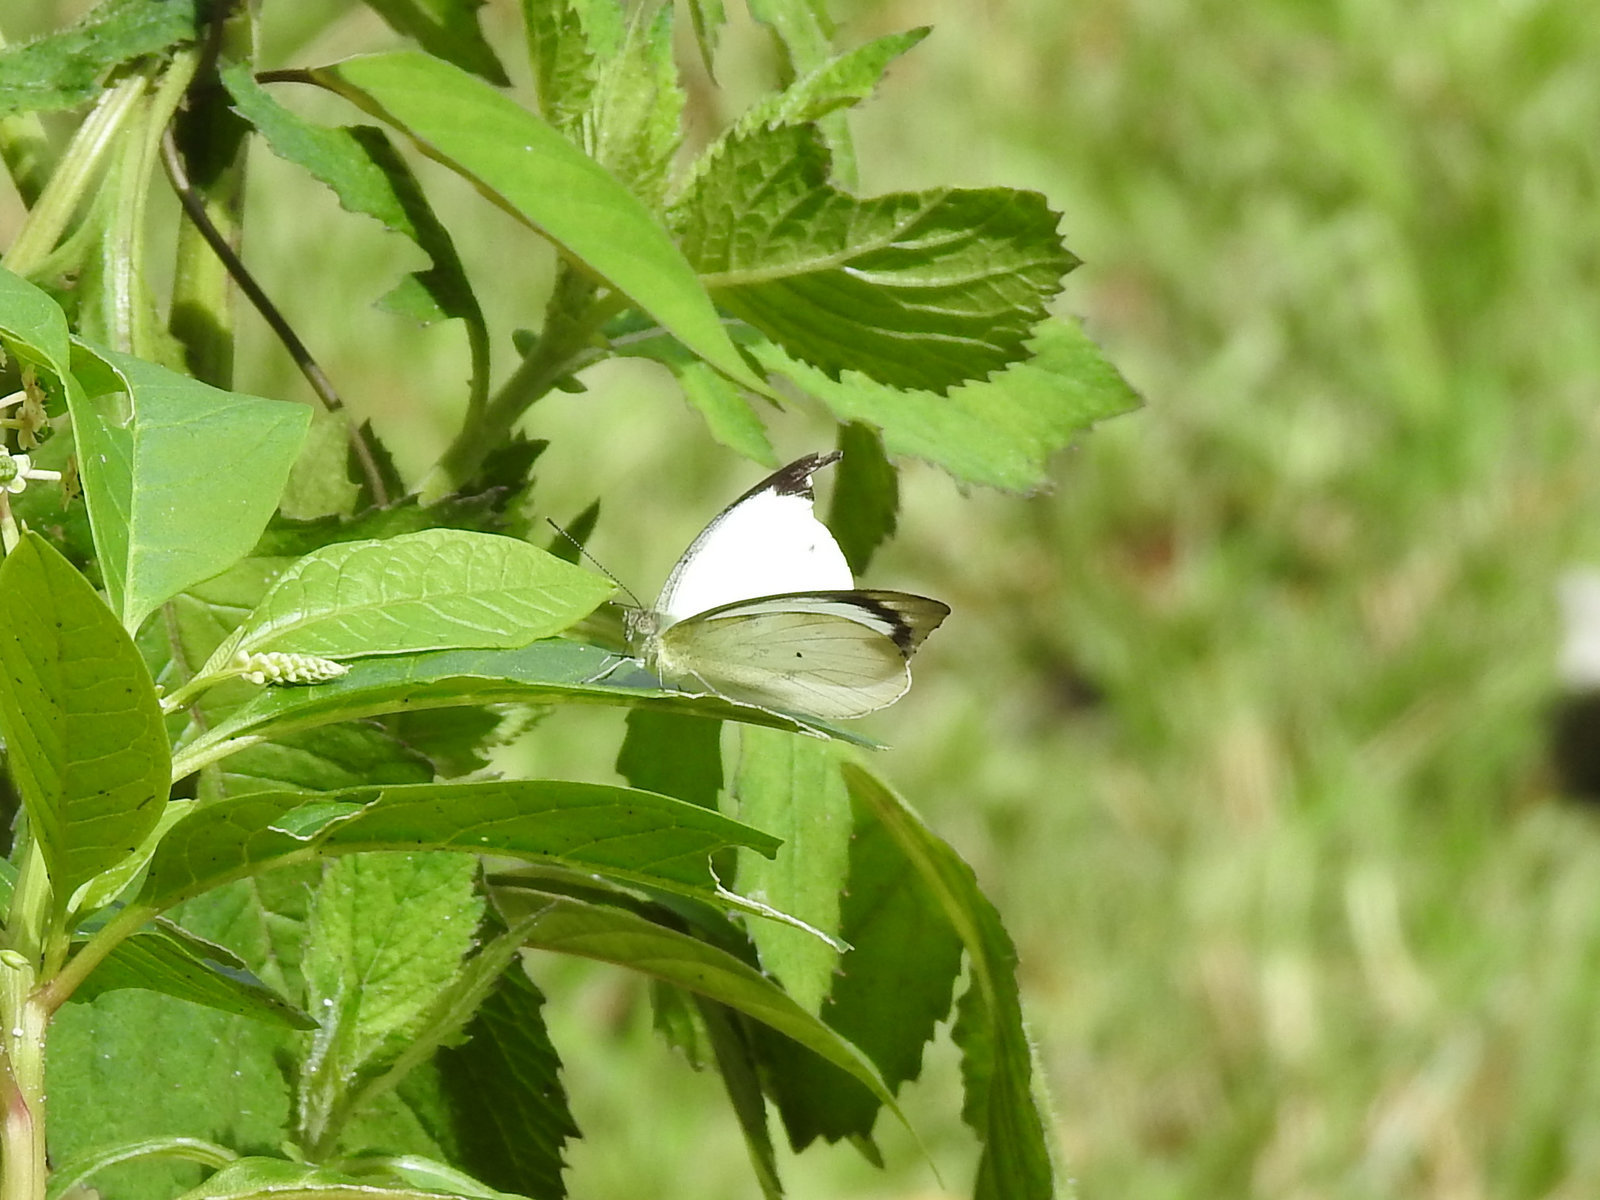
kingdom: Animalia
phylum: Arthropoda
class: Insecta
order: Lepidoptera
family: Pieridae
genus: Appias
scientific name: Appias indra
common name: Plain puffin
